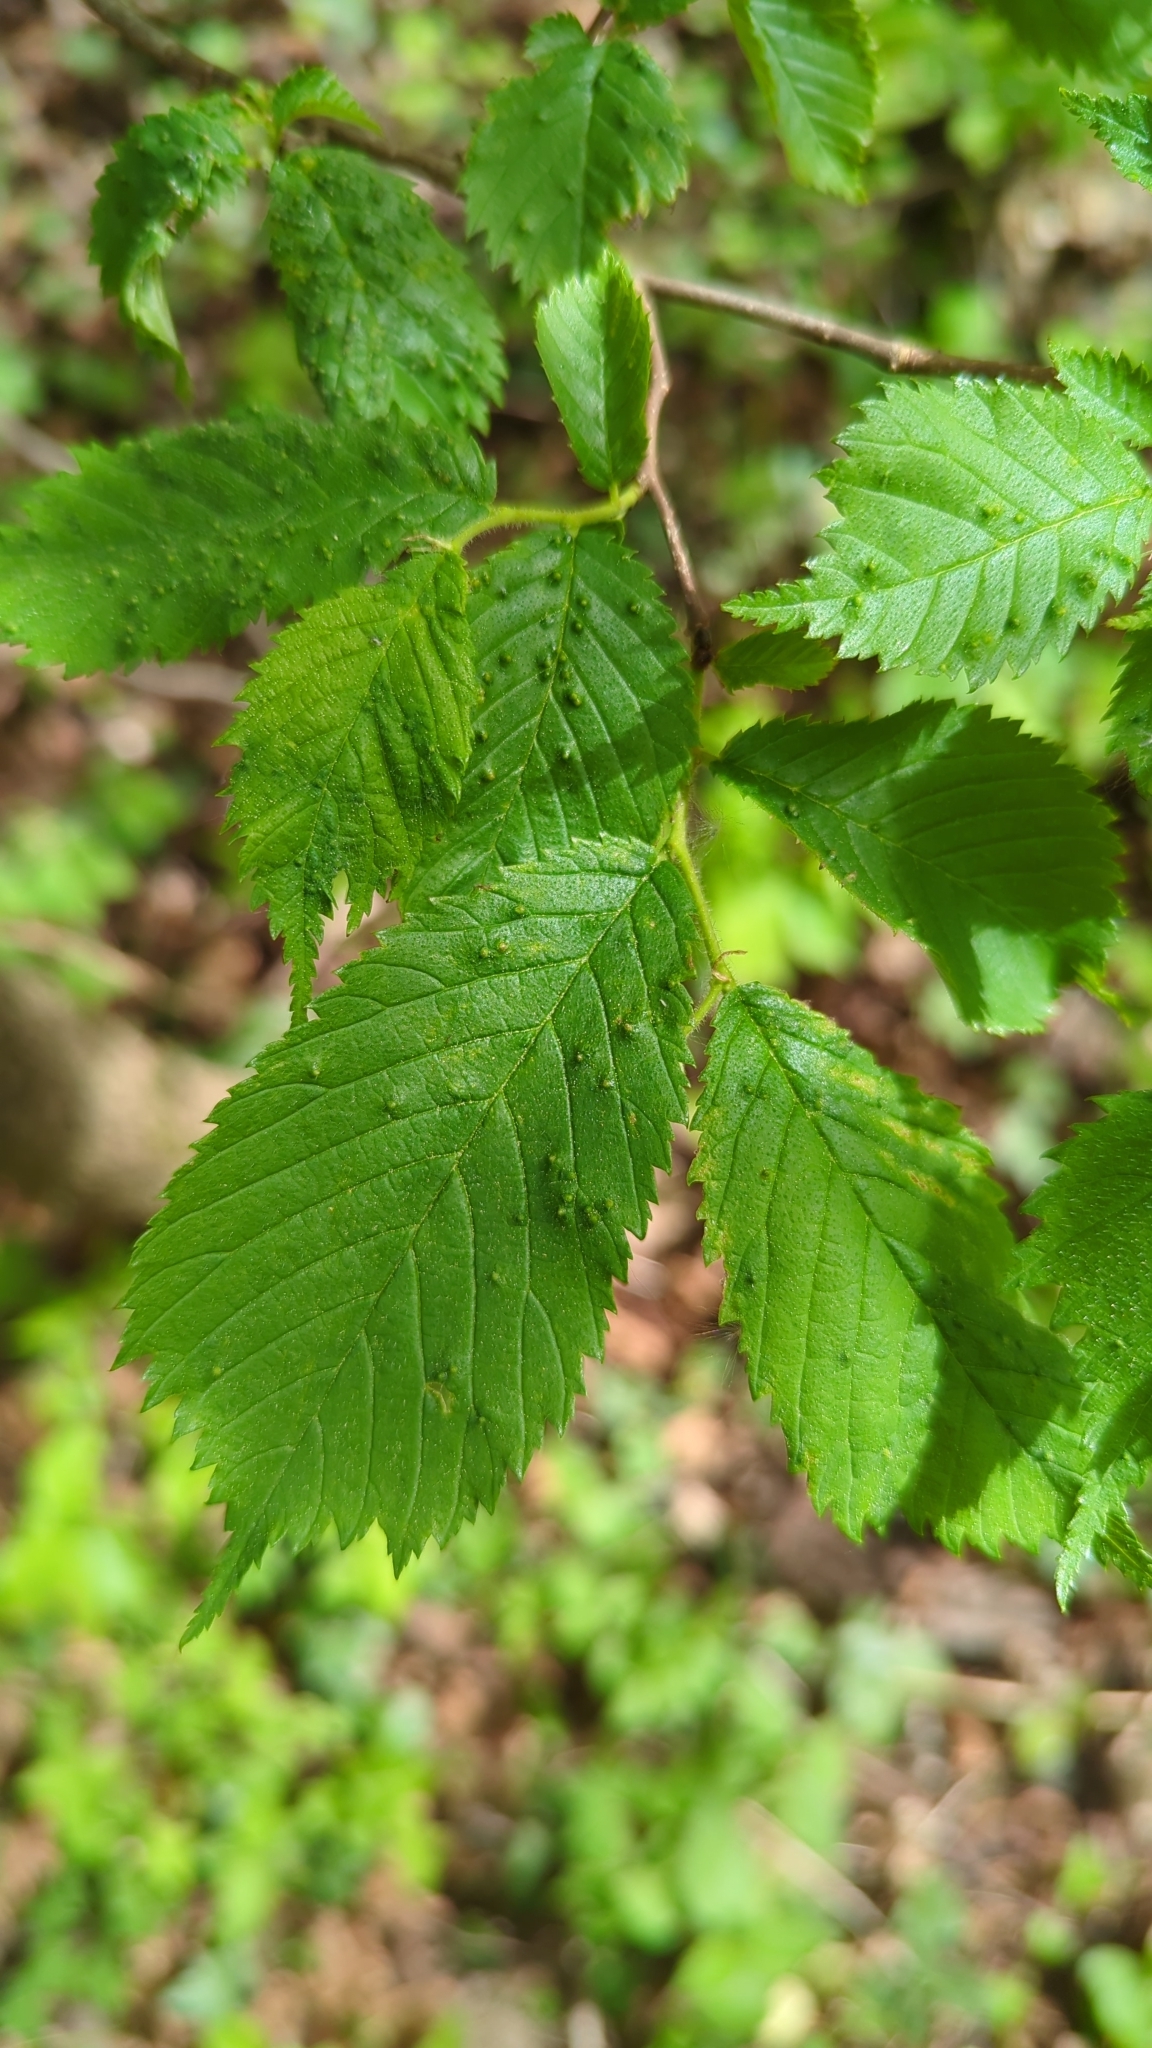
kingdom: Plantae
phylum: Tracheophyta
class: Magnoliopsida
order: Rosales
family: Ulmaceae
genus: Ulmus
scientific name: Ulmus glabra
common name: Wych elm
